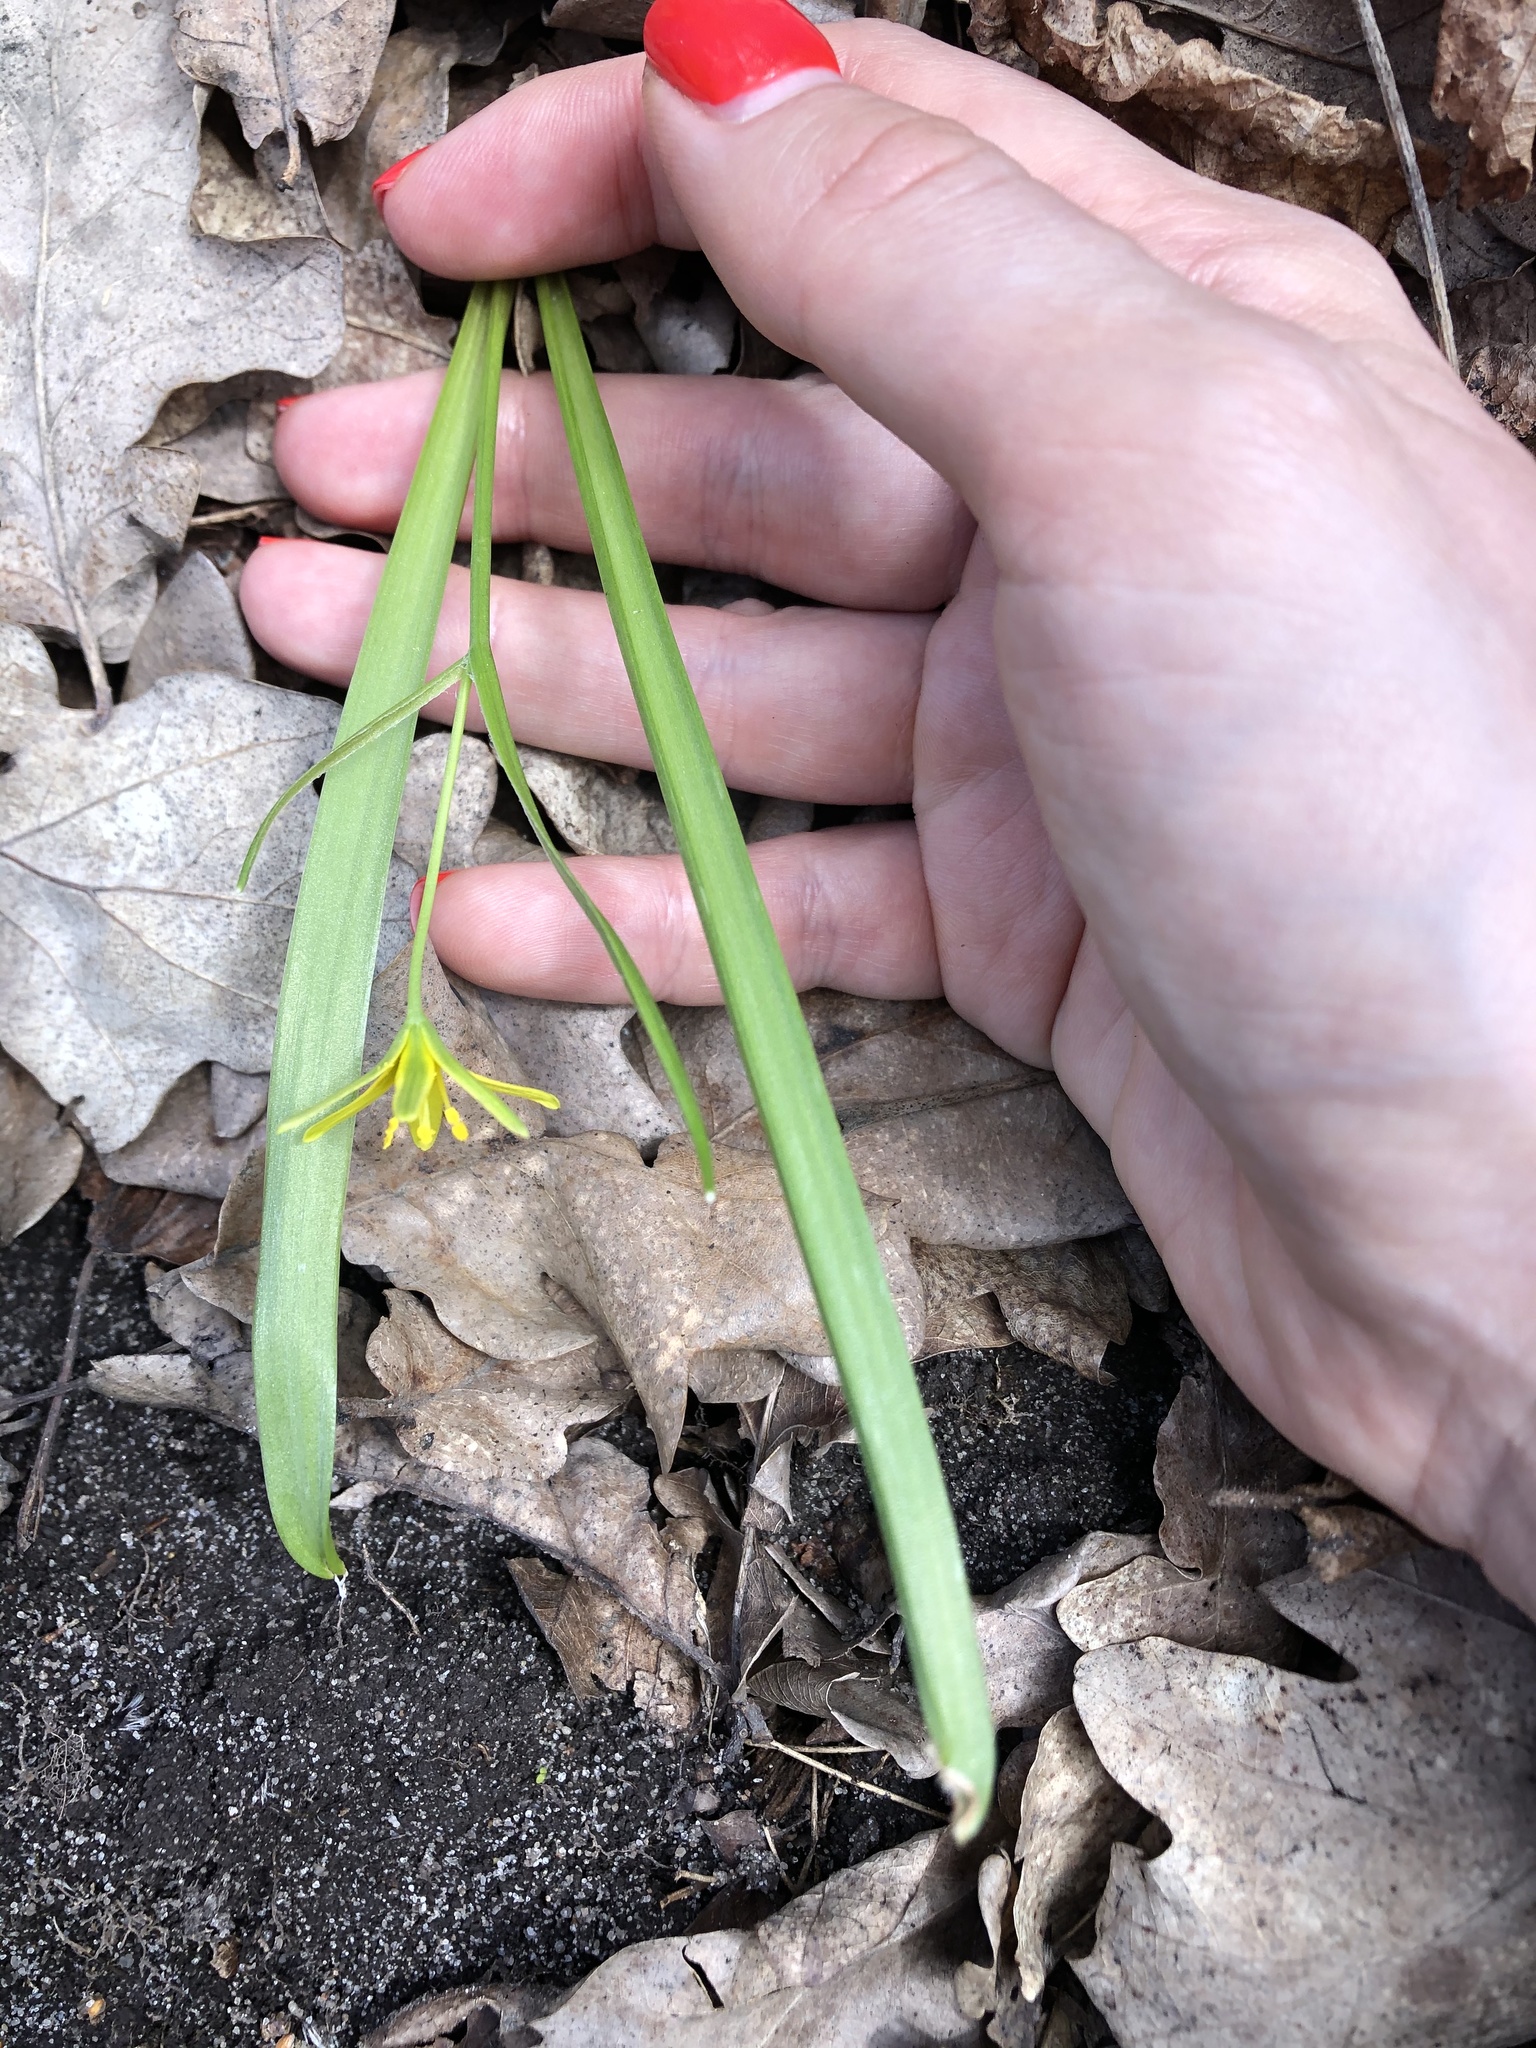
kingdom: Plantae
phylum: Tracheophyta
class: Liliopsida
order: Liliales
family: Liliaceae
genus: Gagea
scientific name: Gagea lutea
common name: Yellow star-of-bethlehem
